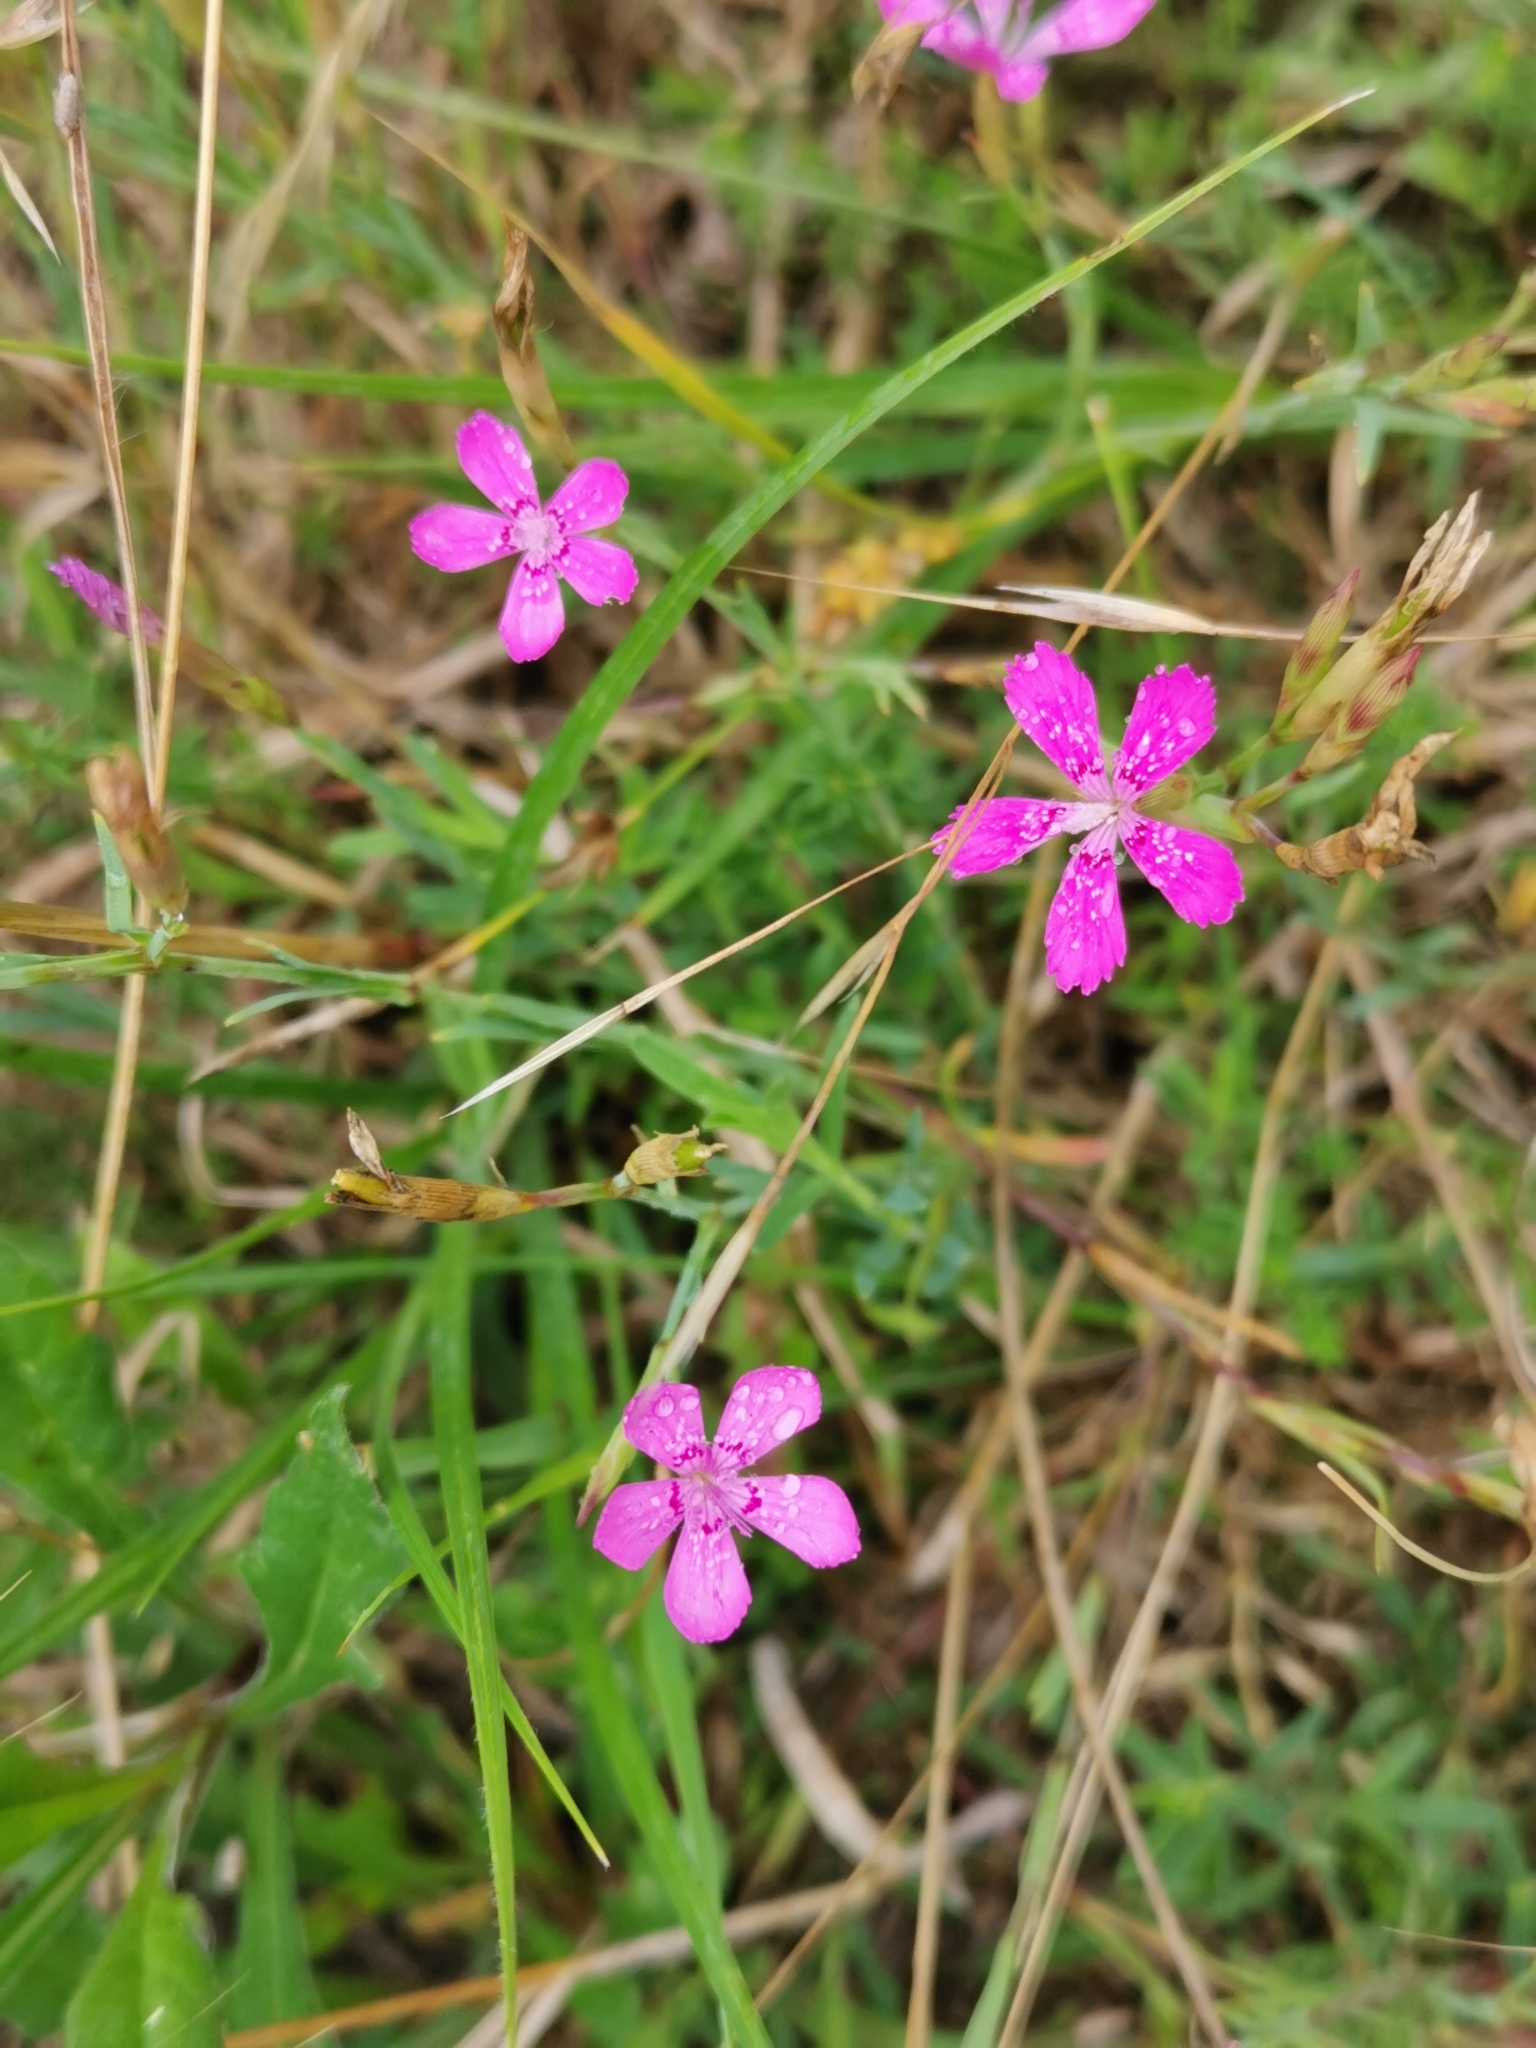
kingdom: Plantae
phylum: Tracheophyta
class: Magnoliopsida
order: Caryophyllales
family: Caryophyllaceae
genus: Dianthus
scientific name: Dianthus deltoides
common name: Maiden pink
